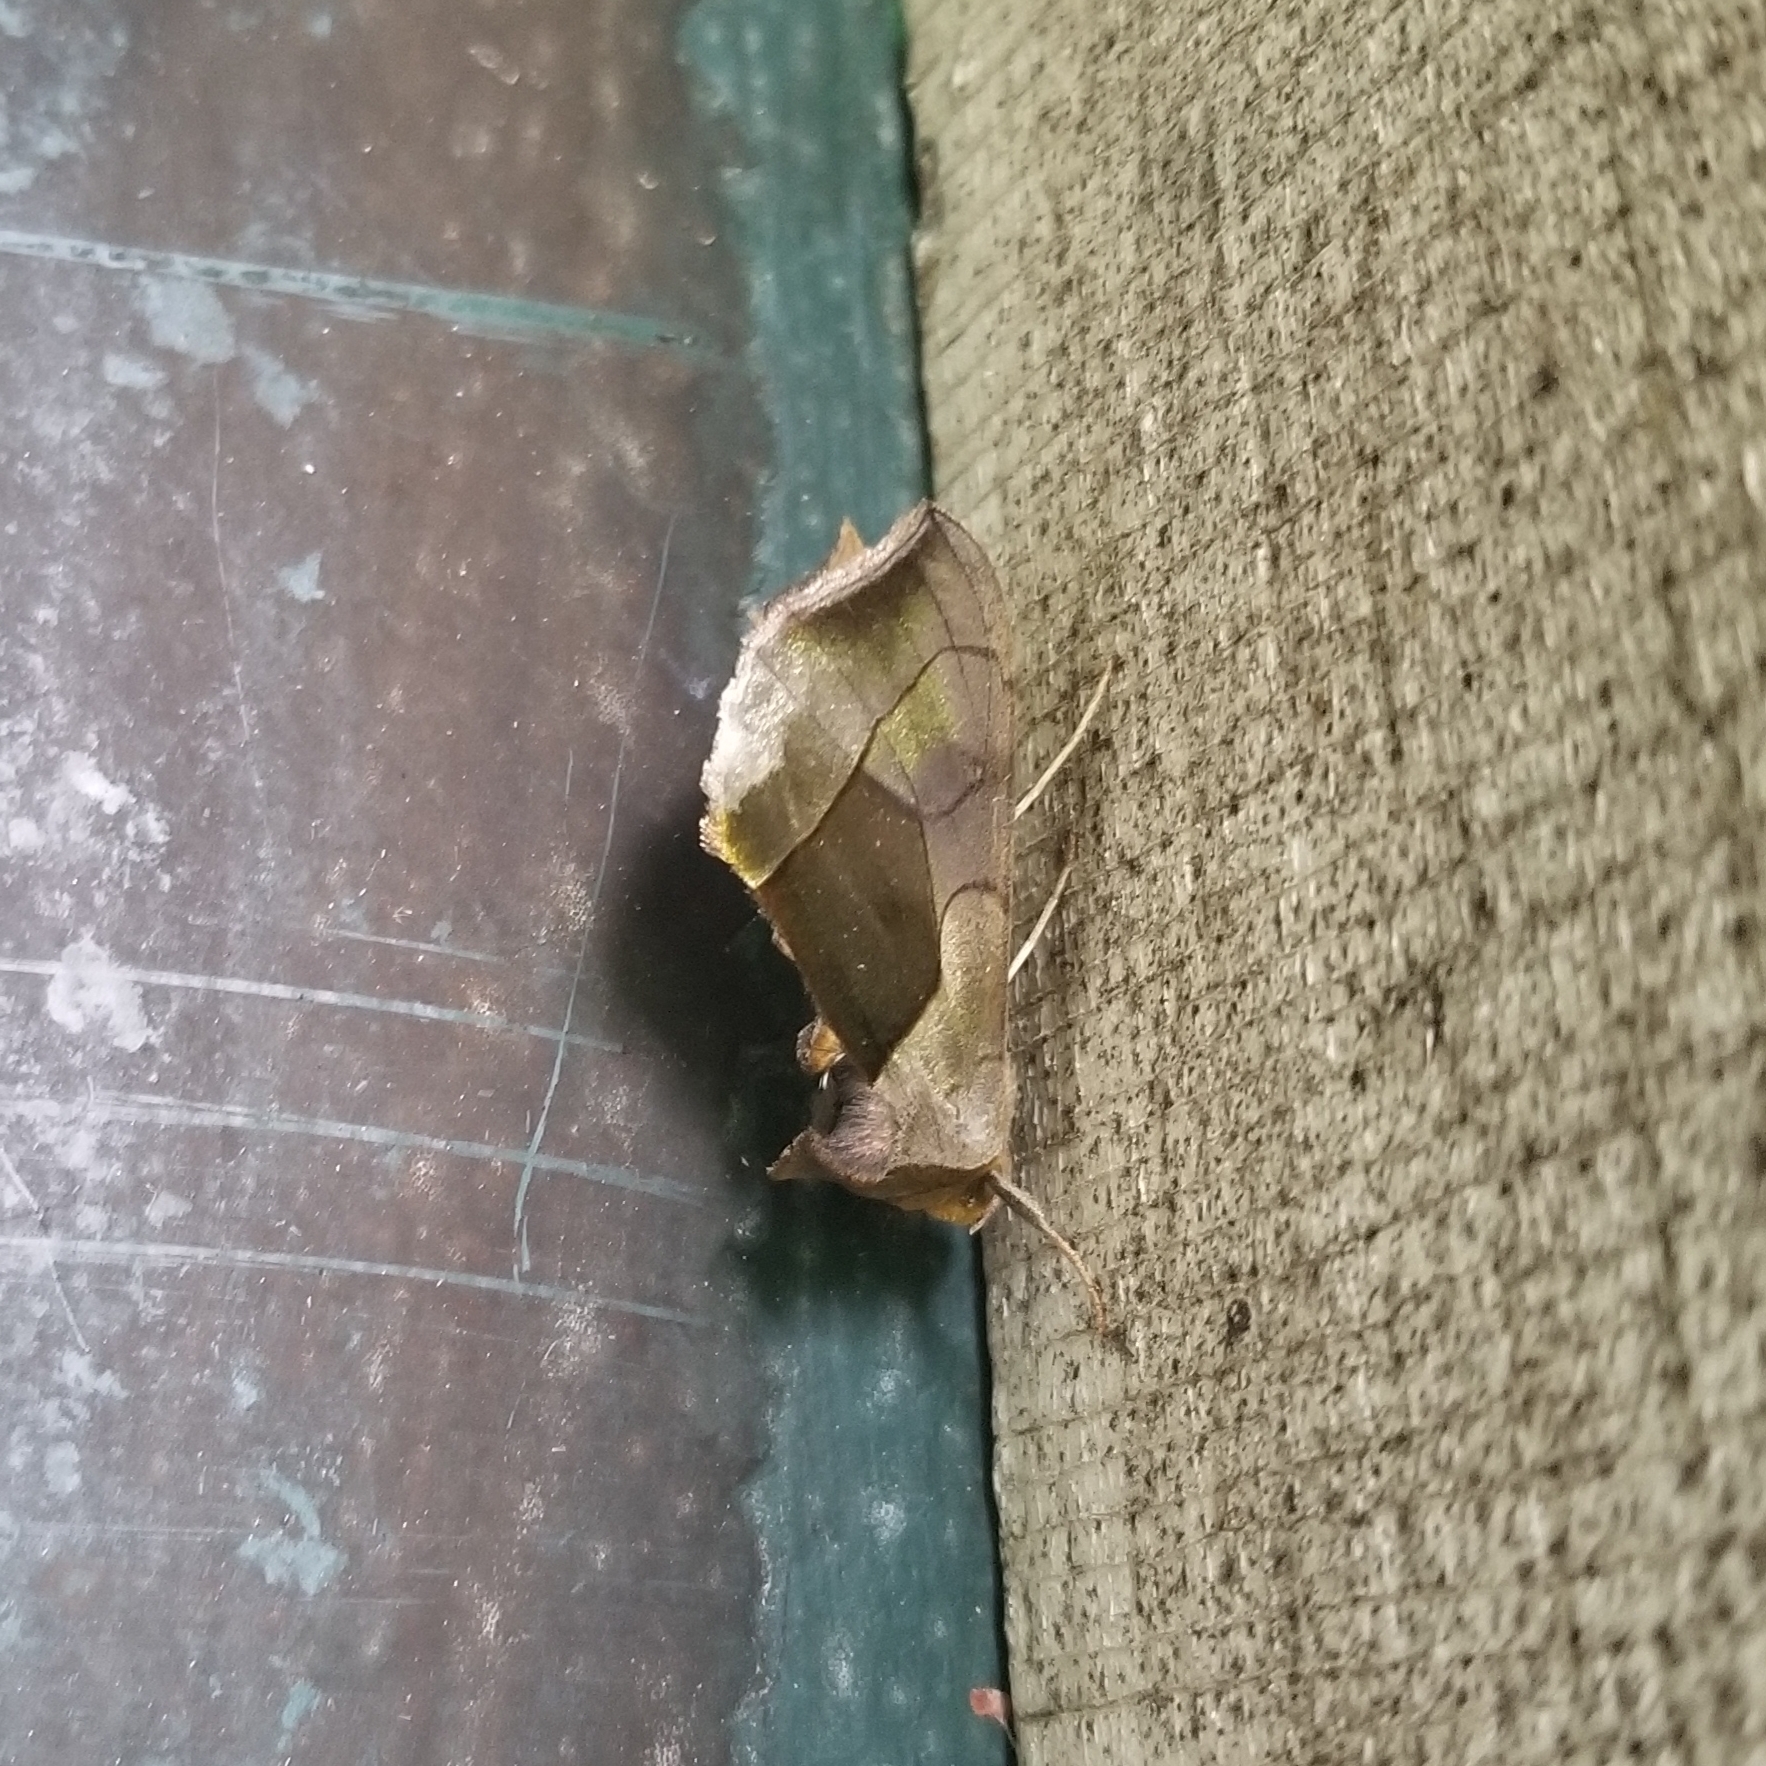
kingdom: Animalia
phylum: Arthropoda
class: Insecta
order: Lepidoptera
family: Noctuidae
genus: Diachrysia
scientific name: Diachrysia balluca
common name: Green-patched looper moth
